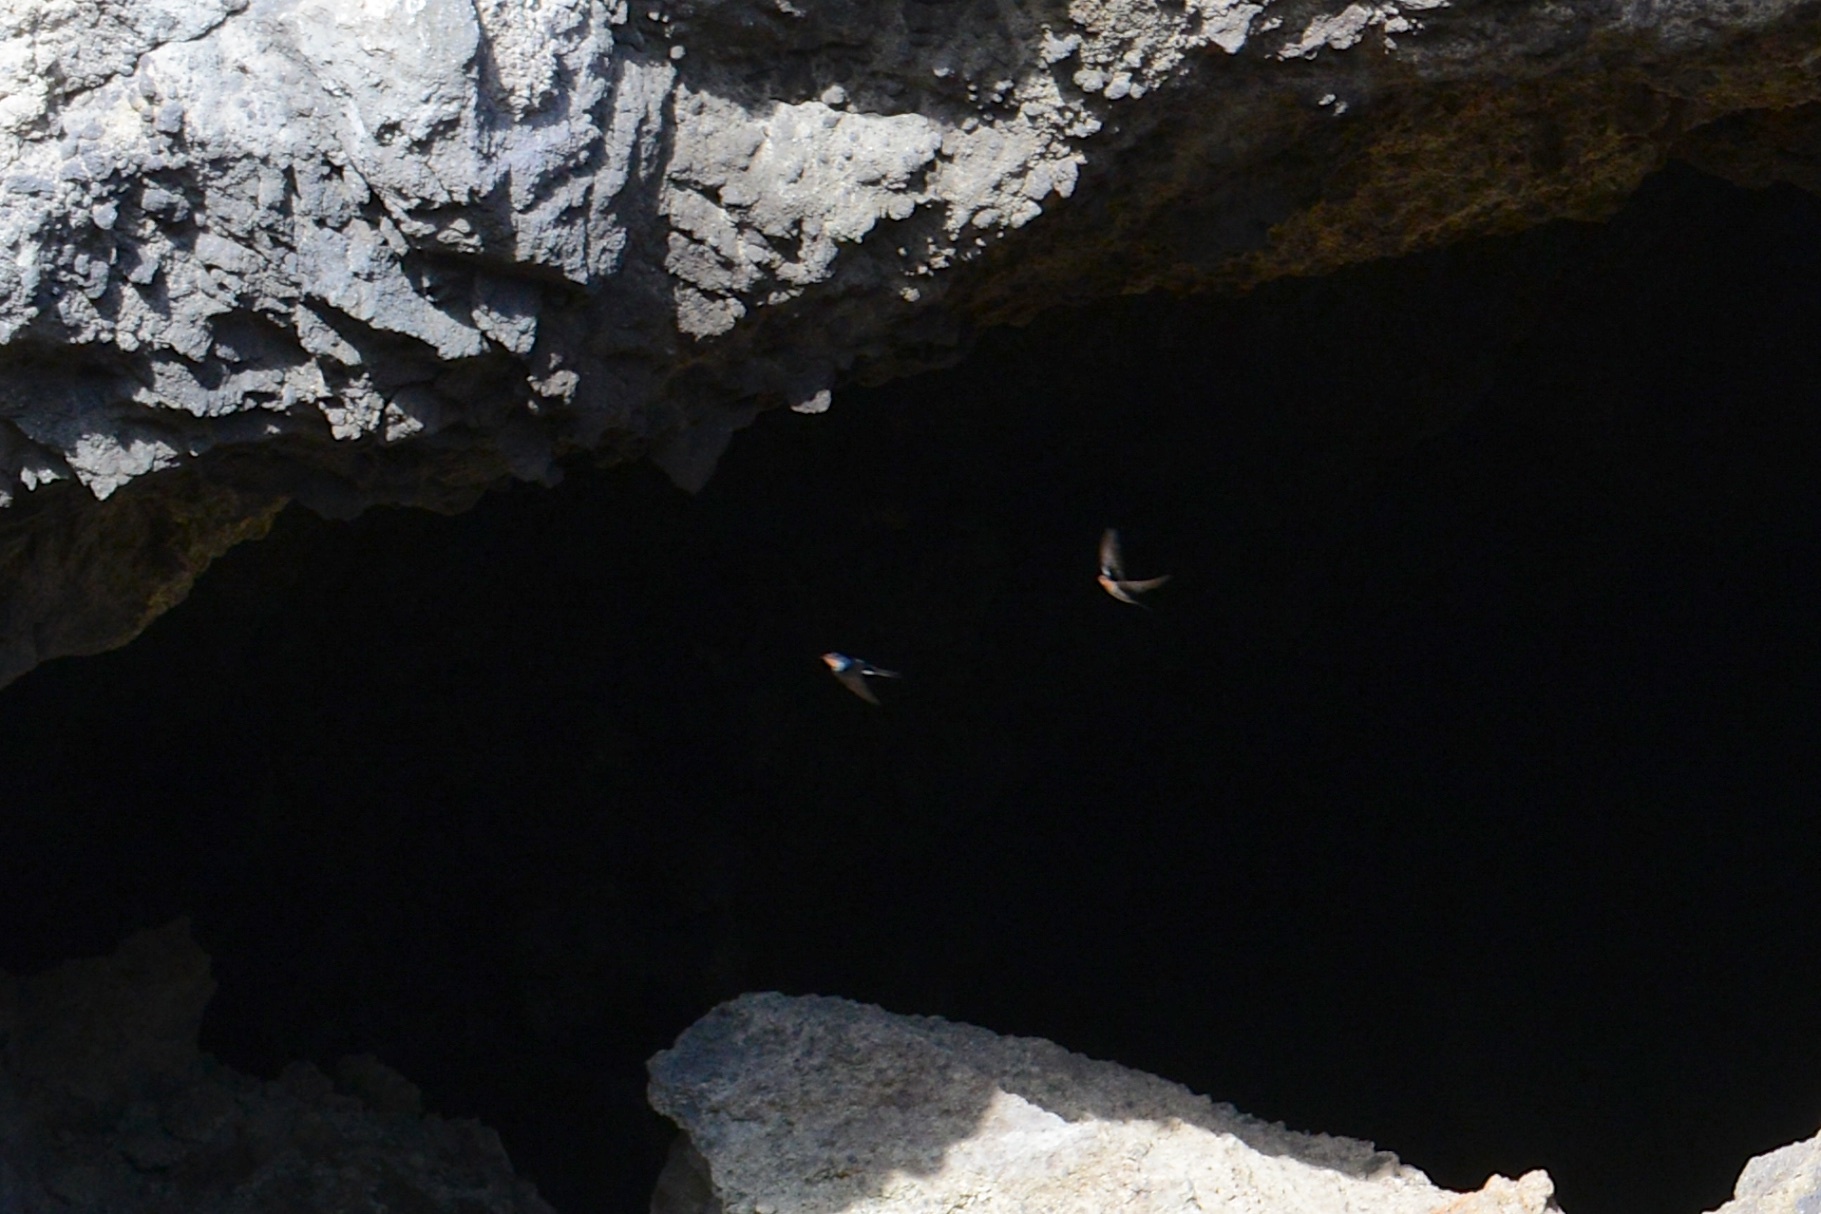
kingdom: Animalia
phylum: Chordata
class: Aves
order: Passeriformes
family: Hirundinidae
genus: Hirundo
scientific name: Hirundo neoxena
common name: Welcome swallow
